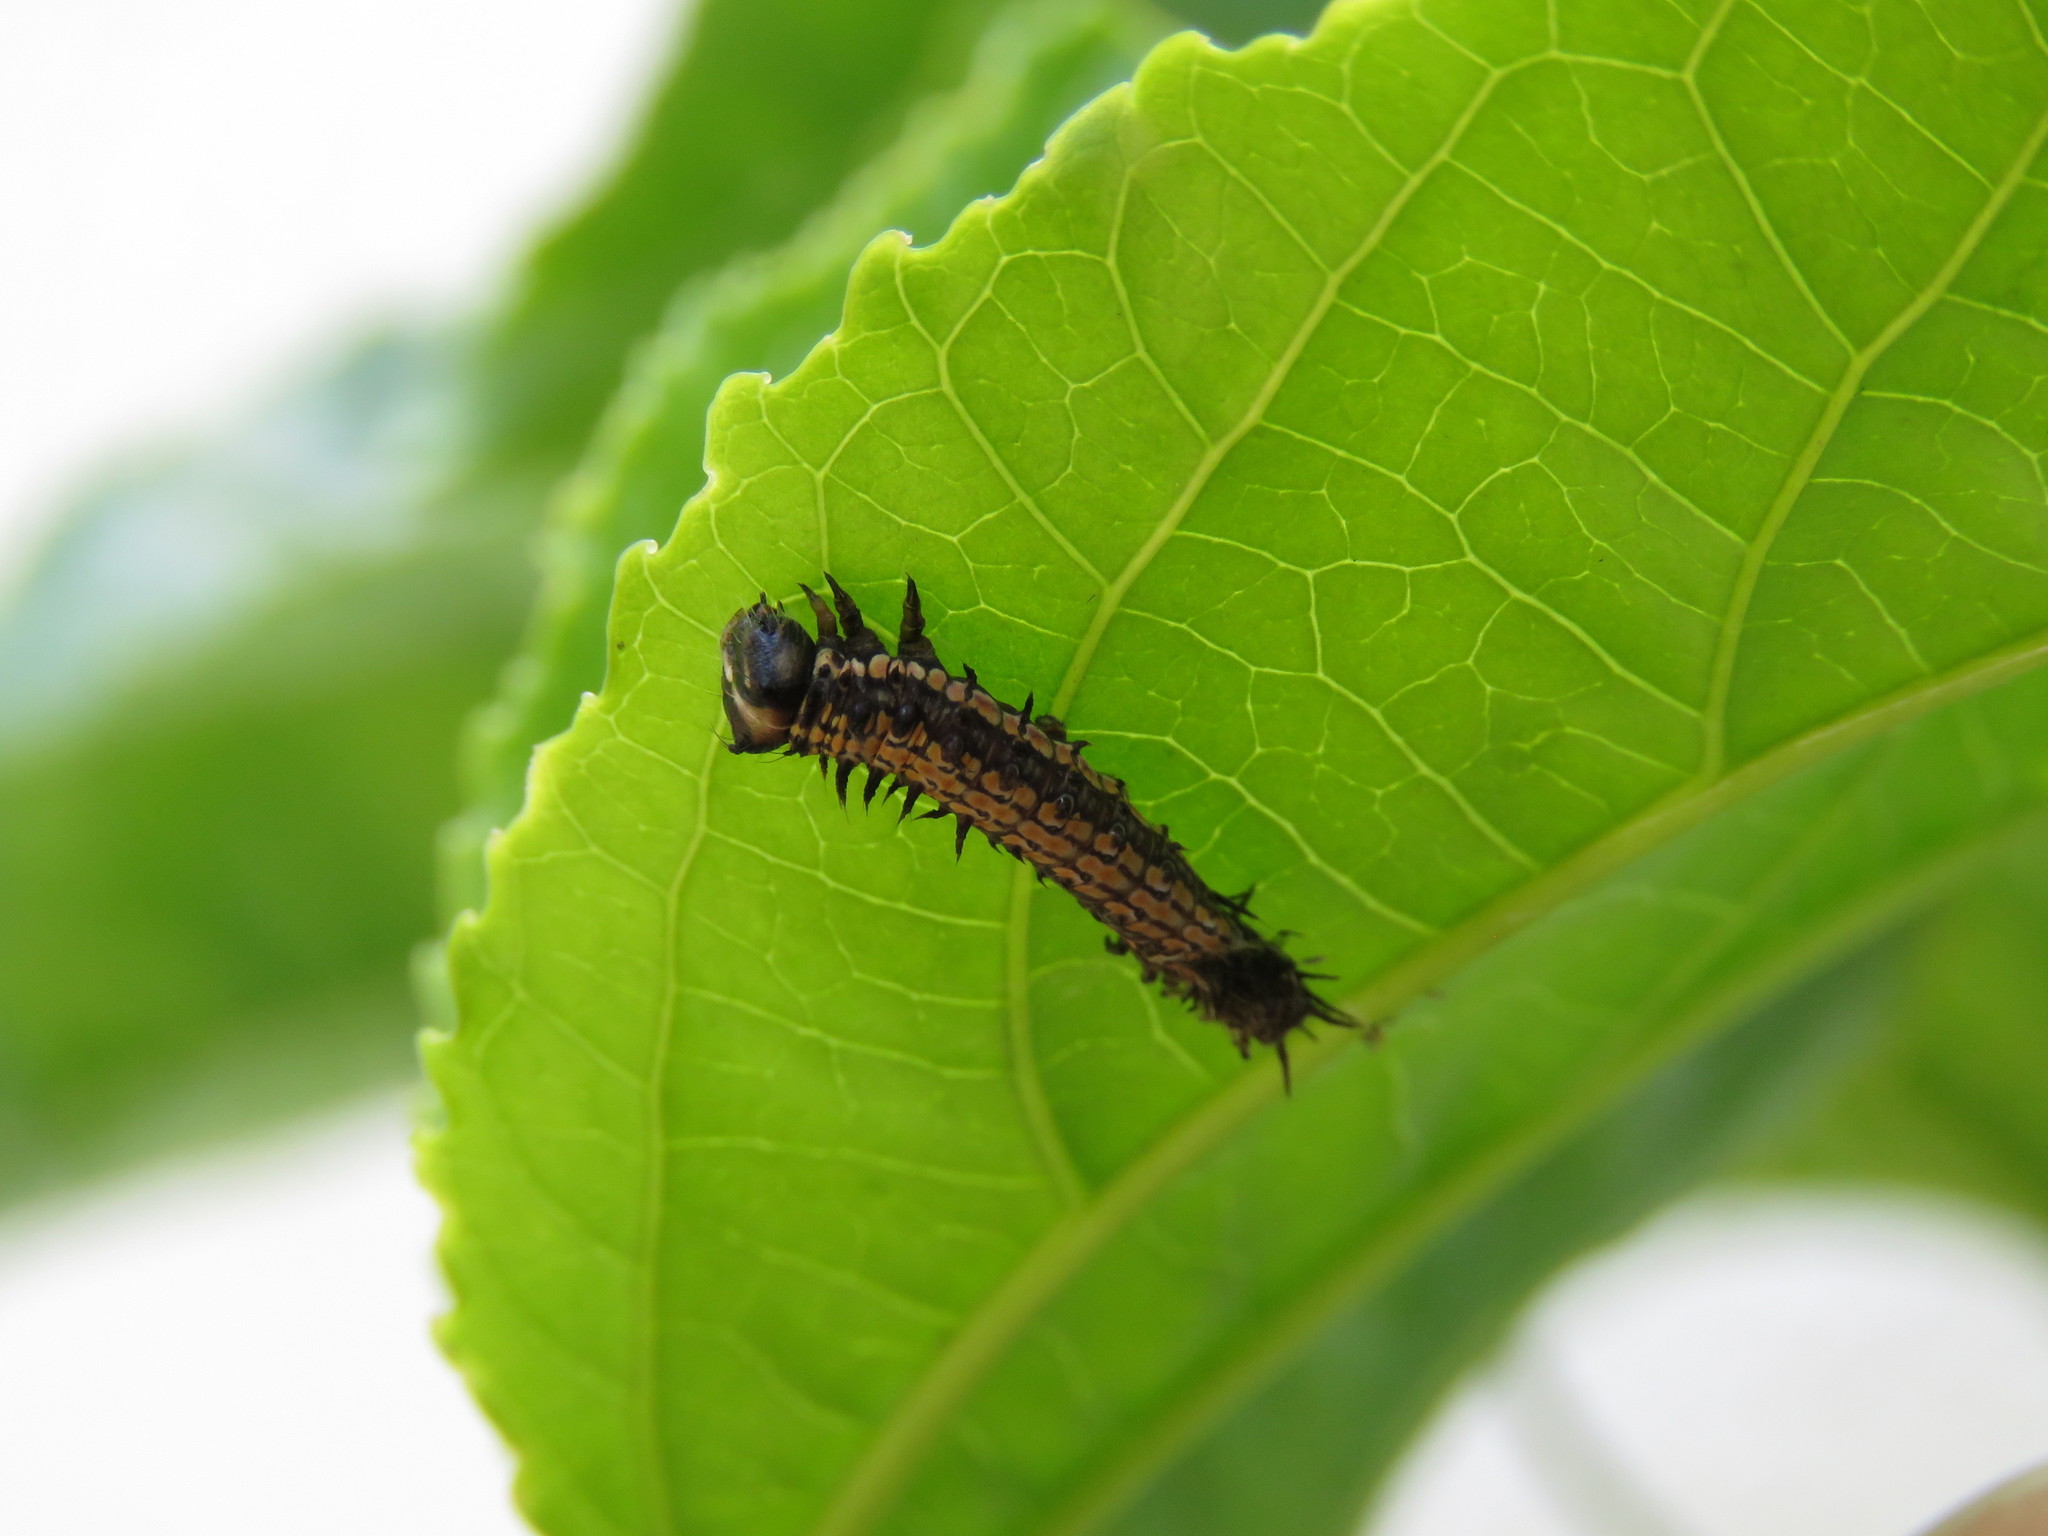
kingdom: Animalia
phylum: Arthropoda
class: Insecta
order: Lepidoptera
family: Nymphalidae
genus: Dione
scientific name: Dione glycera
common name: Andean silverspot
